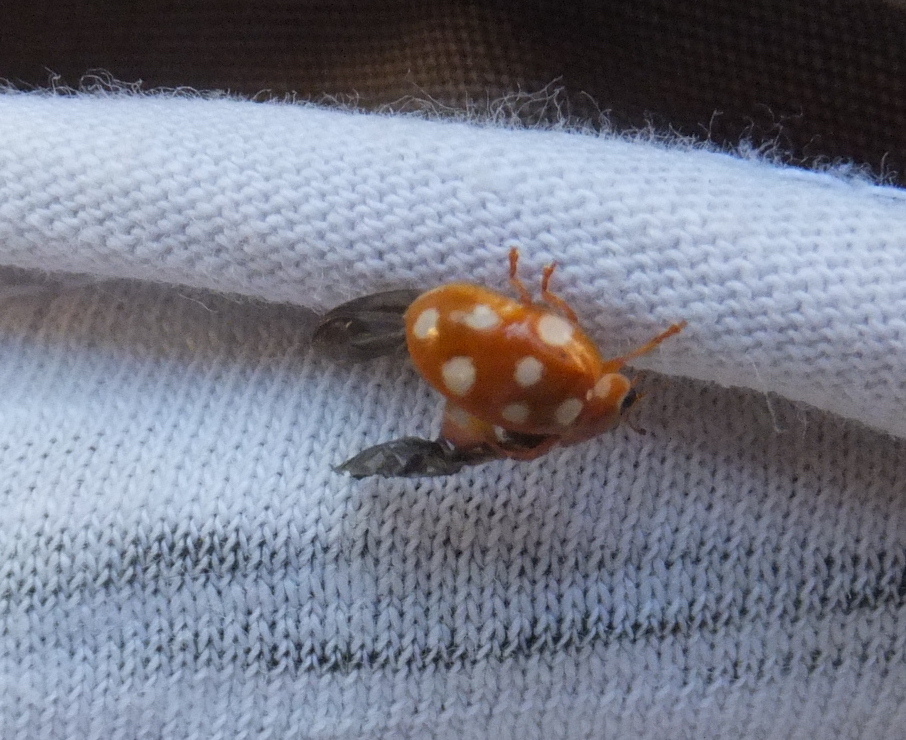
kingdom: Animalia
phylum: Arthropoda
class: Insecta
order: Coleoptera
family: Coccinellidae
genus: Calvia
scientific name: Calvia quatuordecimguttata
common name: Cream-spot ladybird
